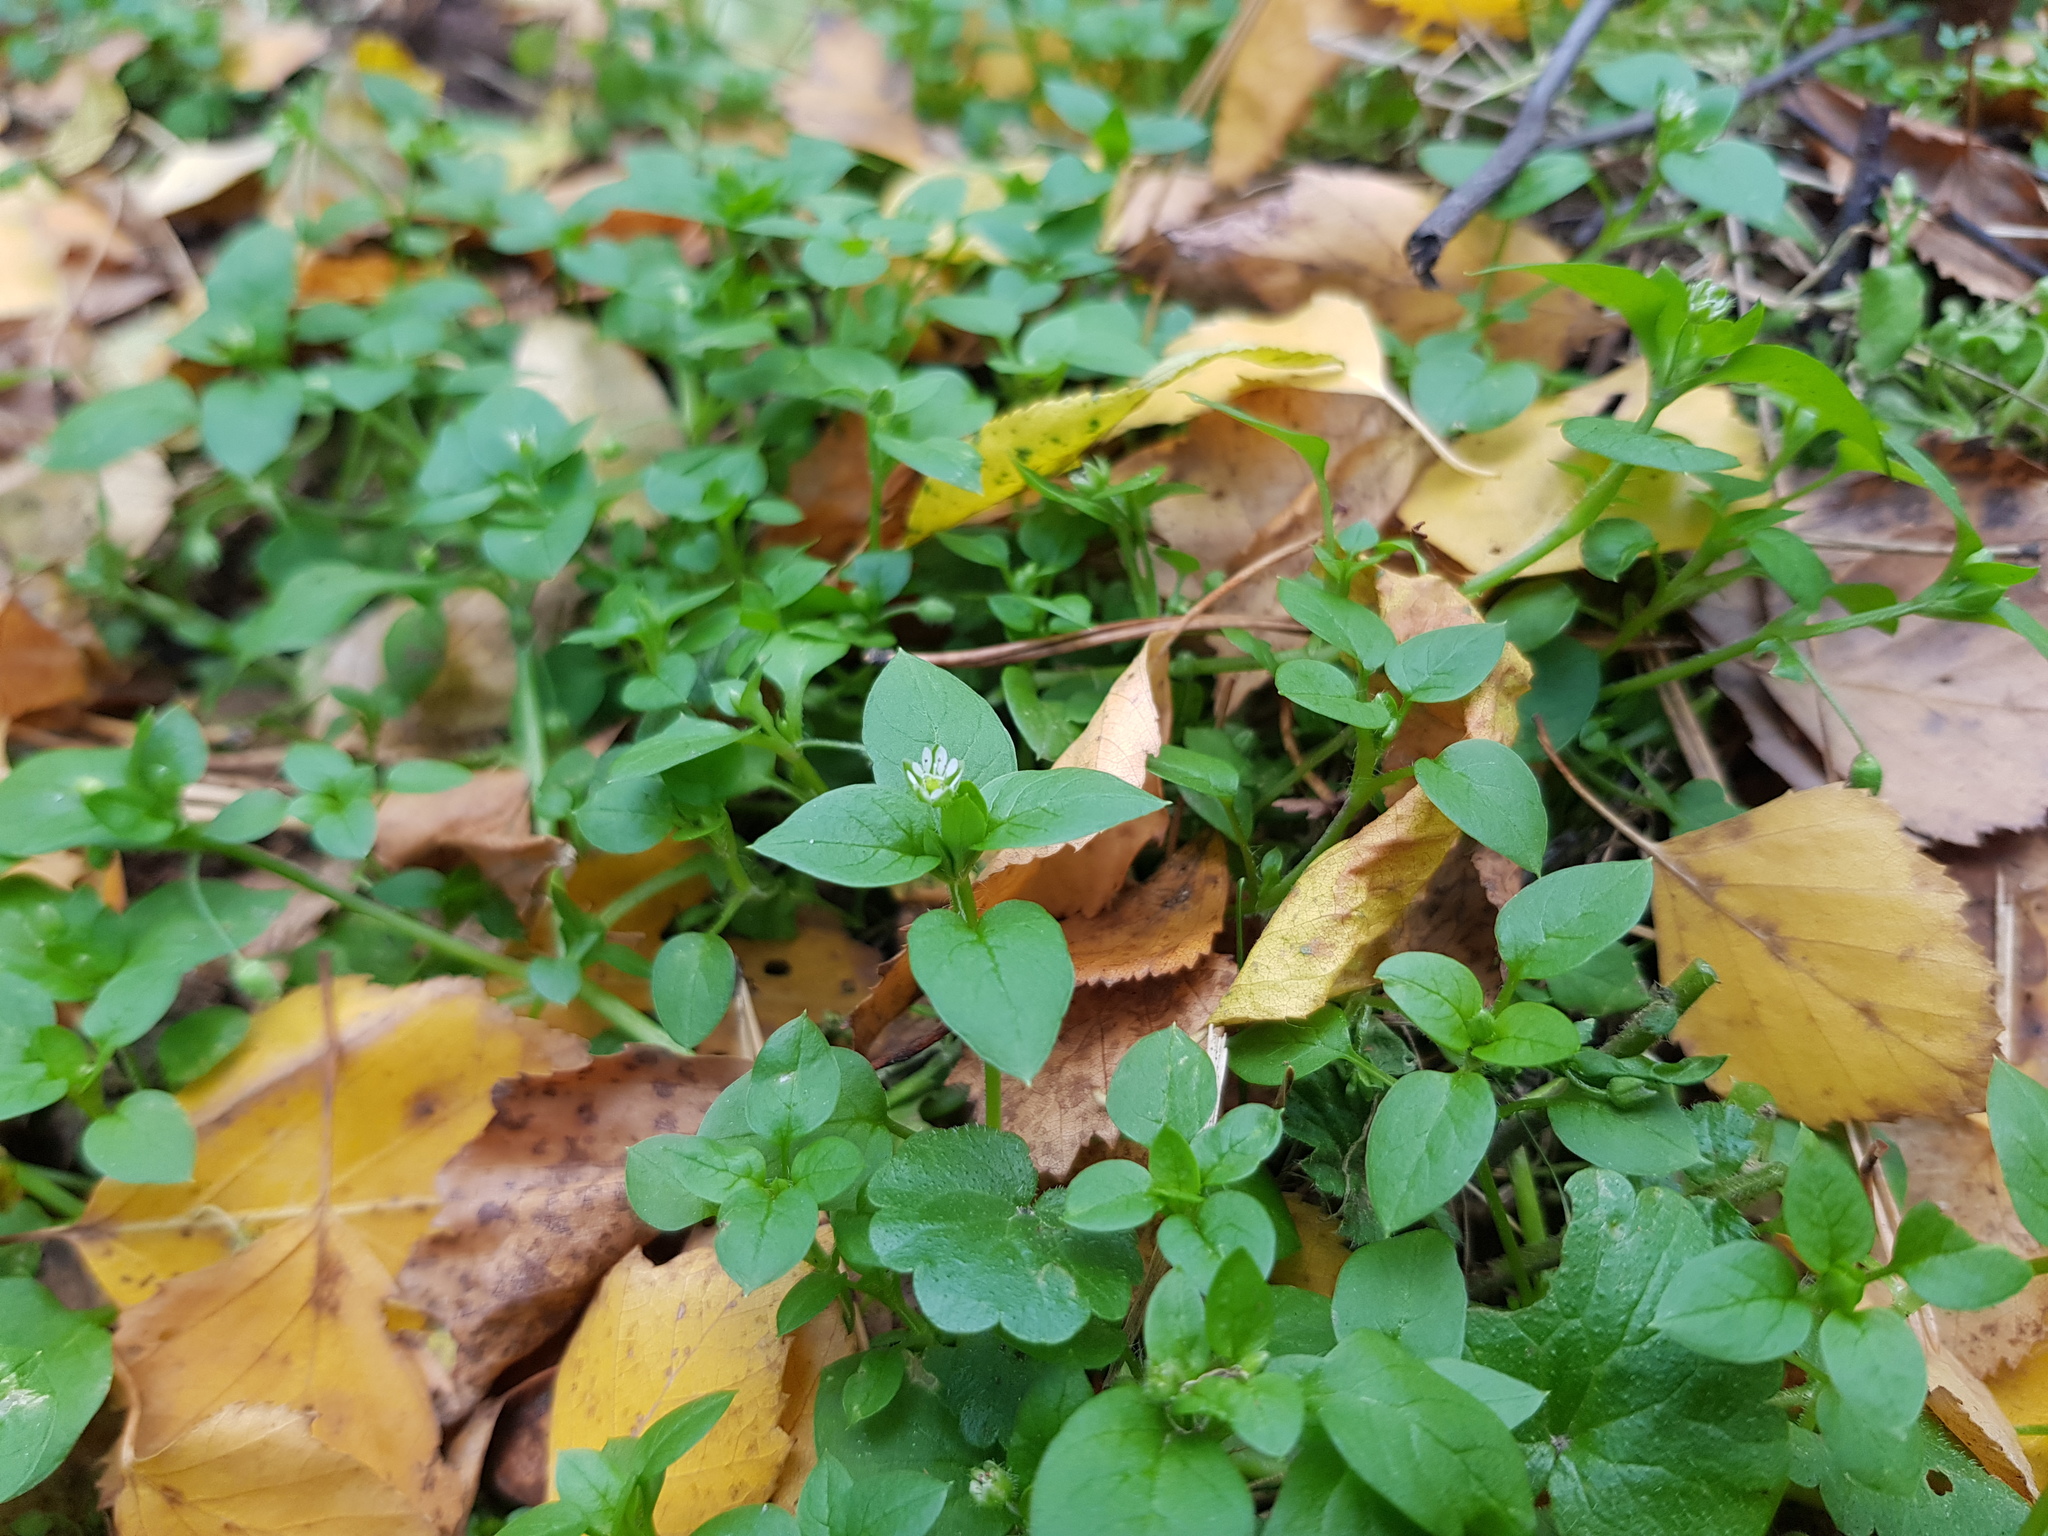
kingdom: Plantae
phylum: Tracheophyta
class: Magnoliopsida
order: Caryophyllales
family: Caryophyllaceae
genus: Stellaria
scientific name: Stellaria media
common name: Common chickweed
